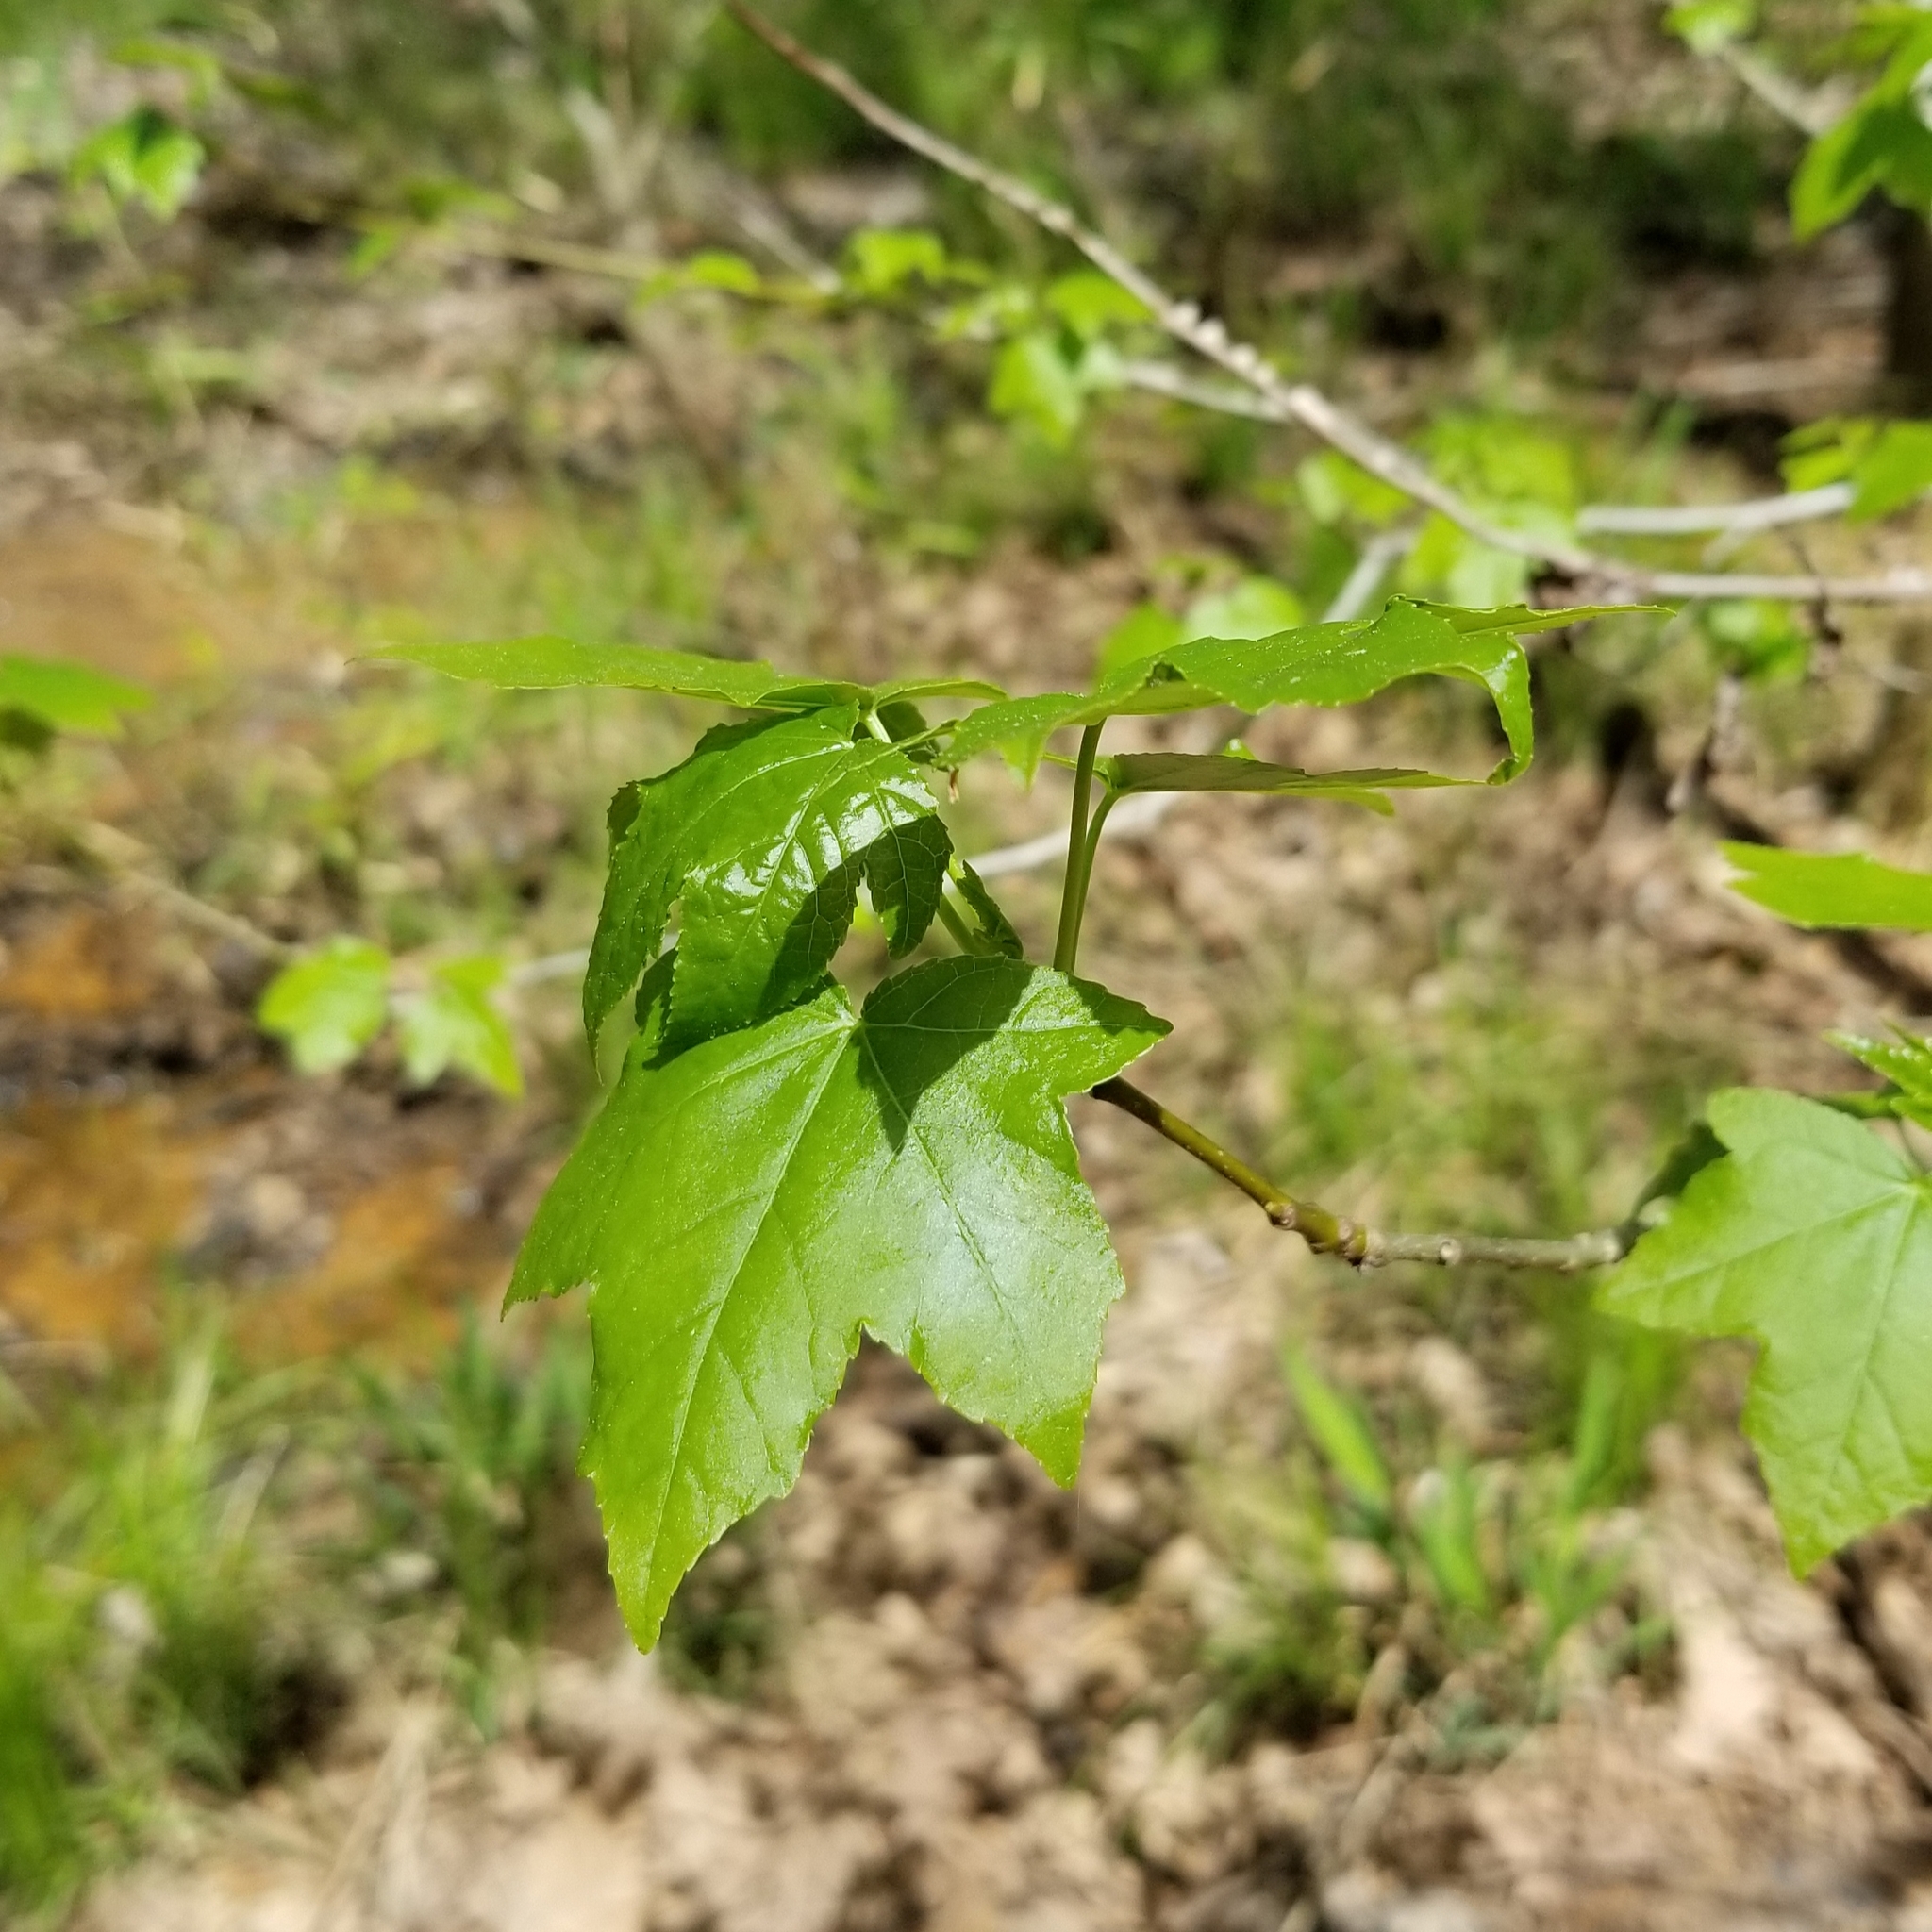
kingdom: Plantae
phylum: Tracheophyta
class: Magnoliopsida
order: Saxifragales
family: Altingiaceae
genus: Liquidambar
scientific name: Liquidambar styraciflua
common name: Sweet gum
